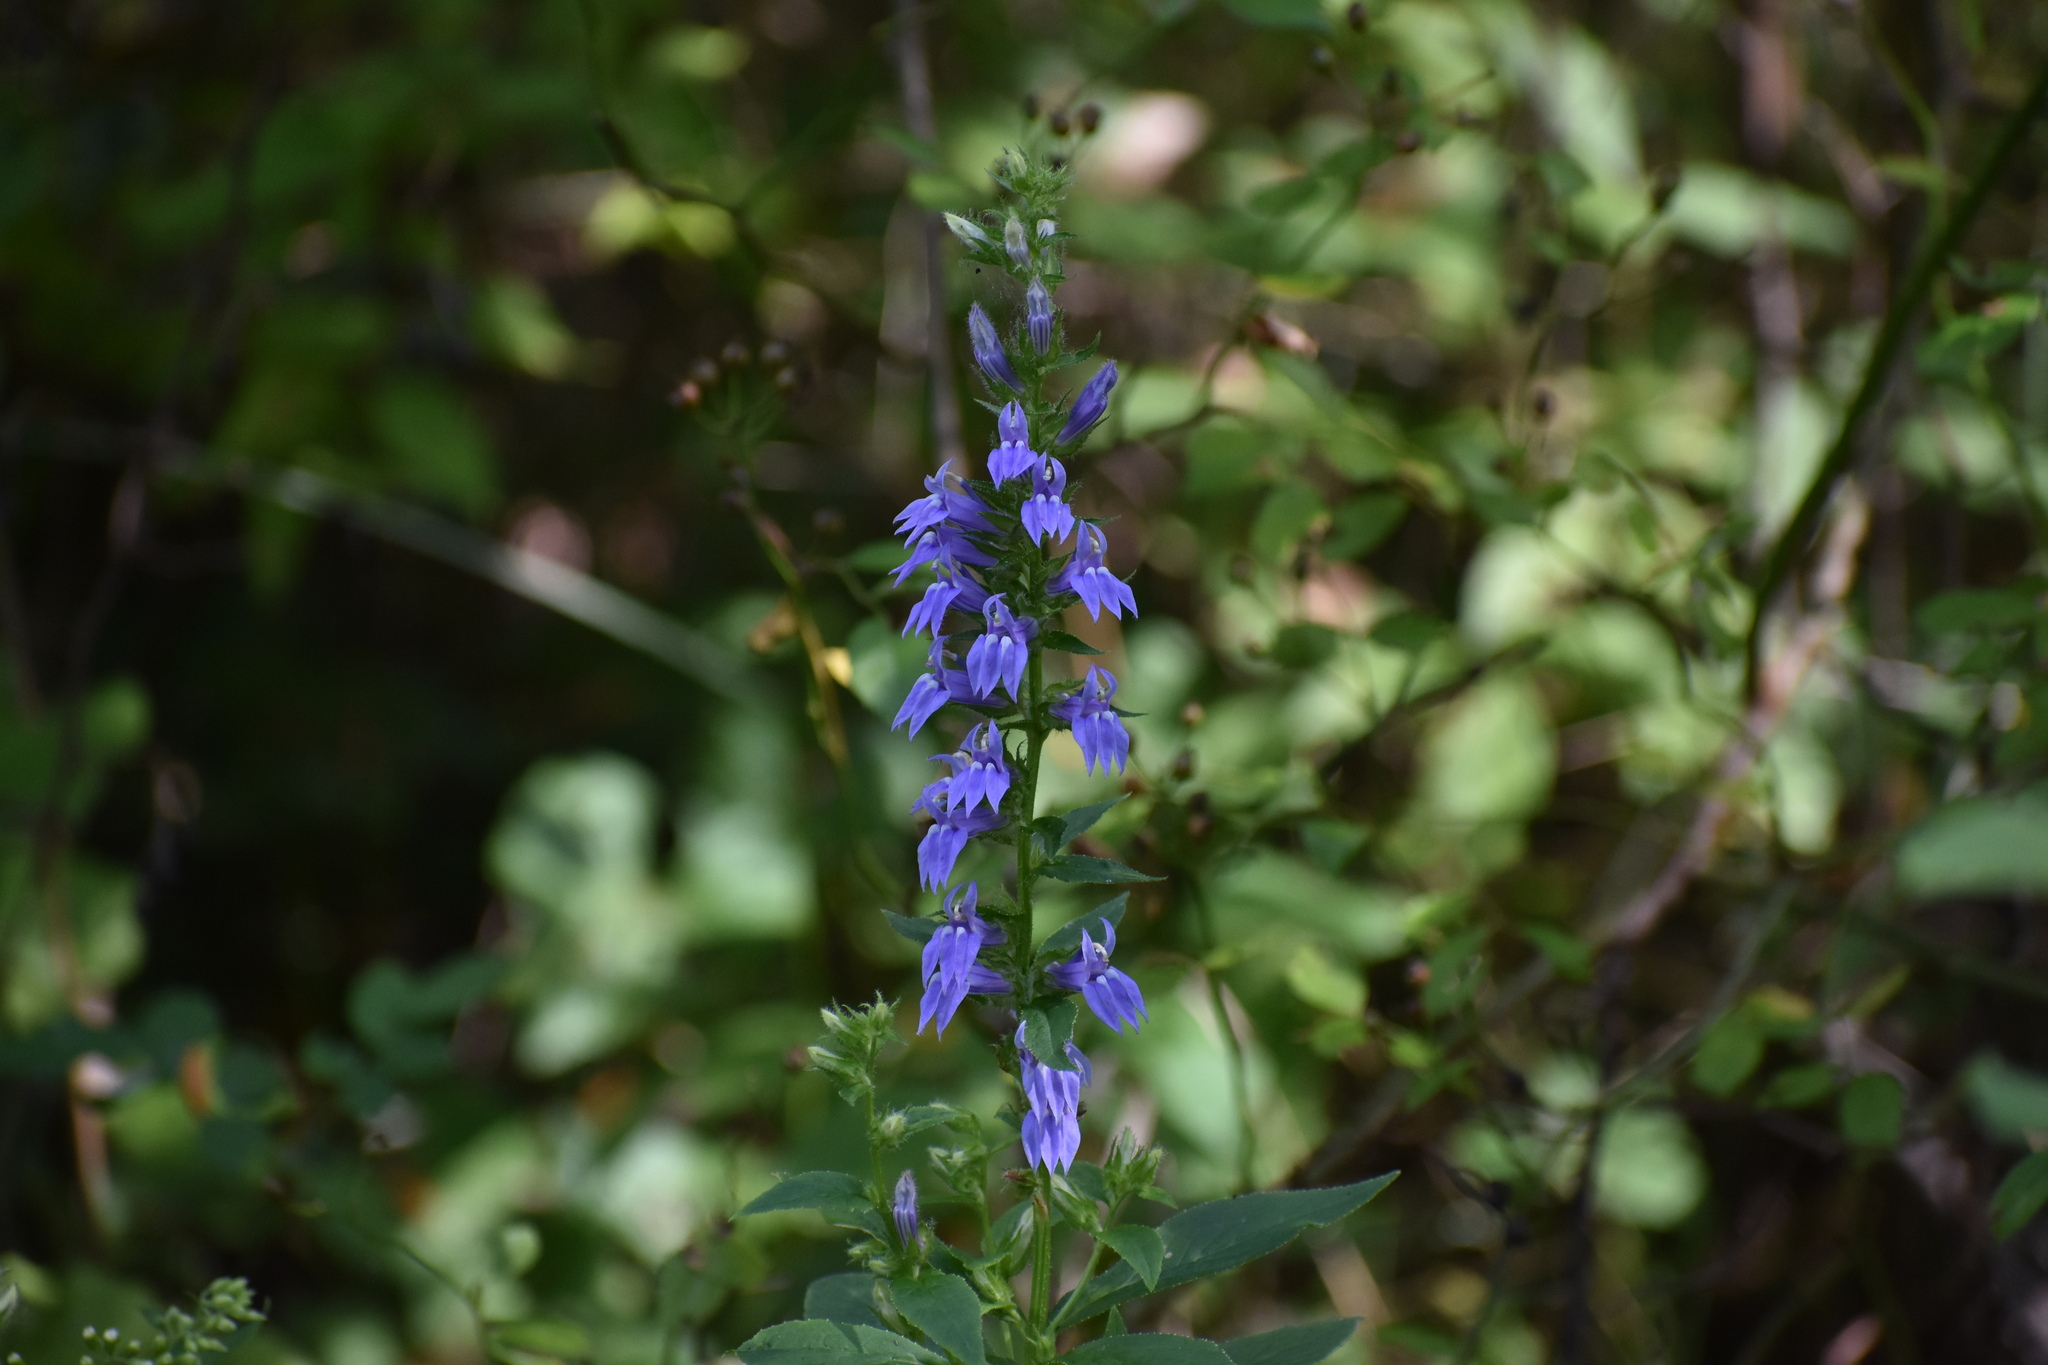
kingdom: Plantae
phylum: Tracheophyta
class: Magnoliopsida
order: Asterales
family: Campanulaceae
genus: Lobelia
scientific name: Lobelia siphilitica
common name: Great lobelia
